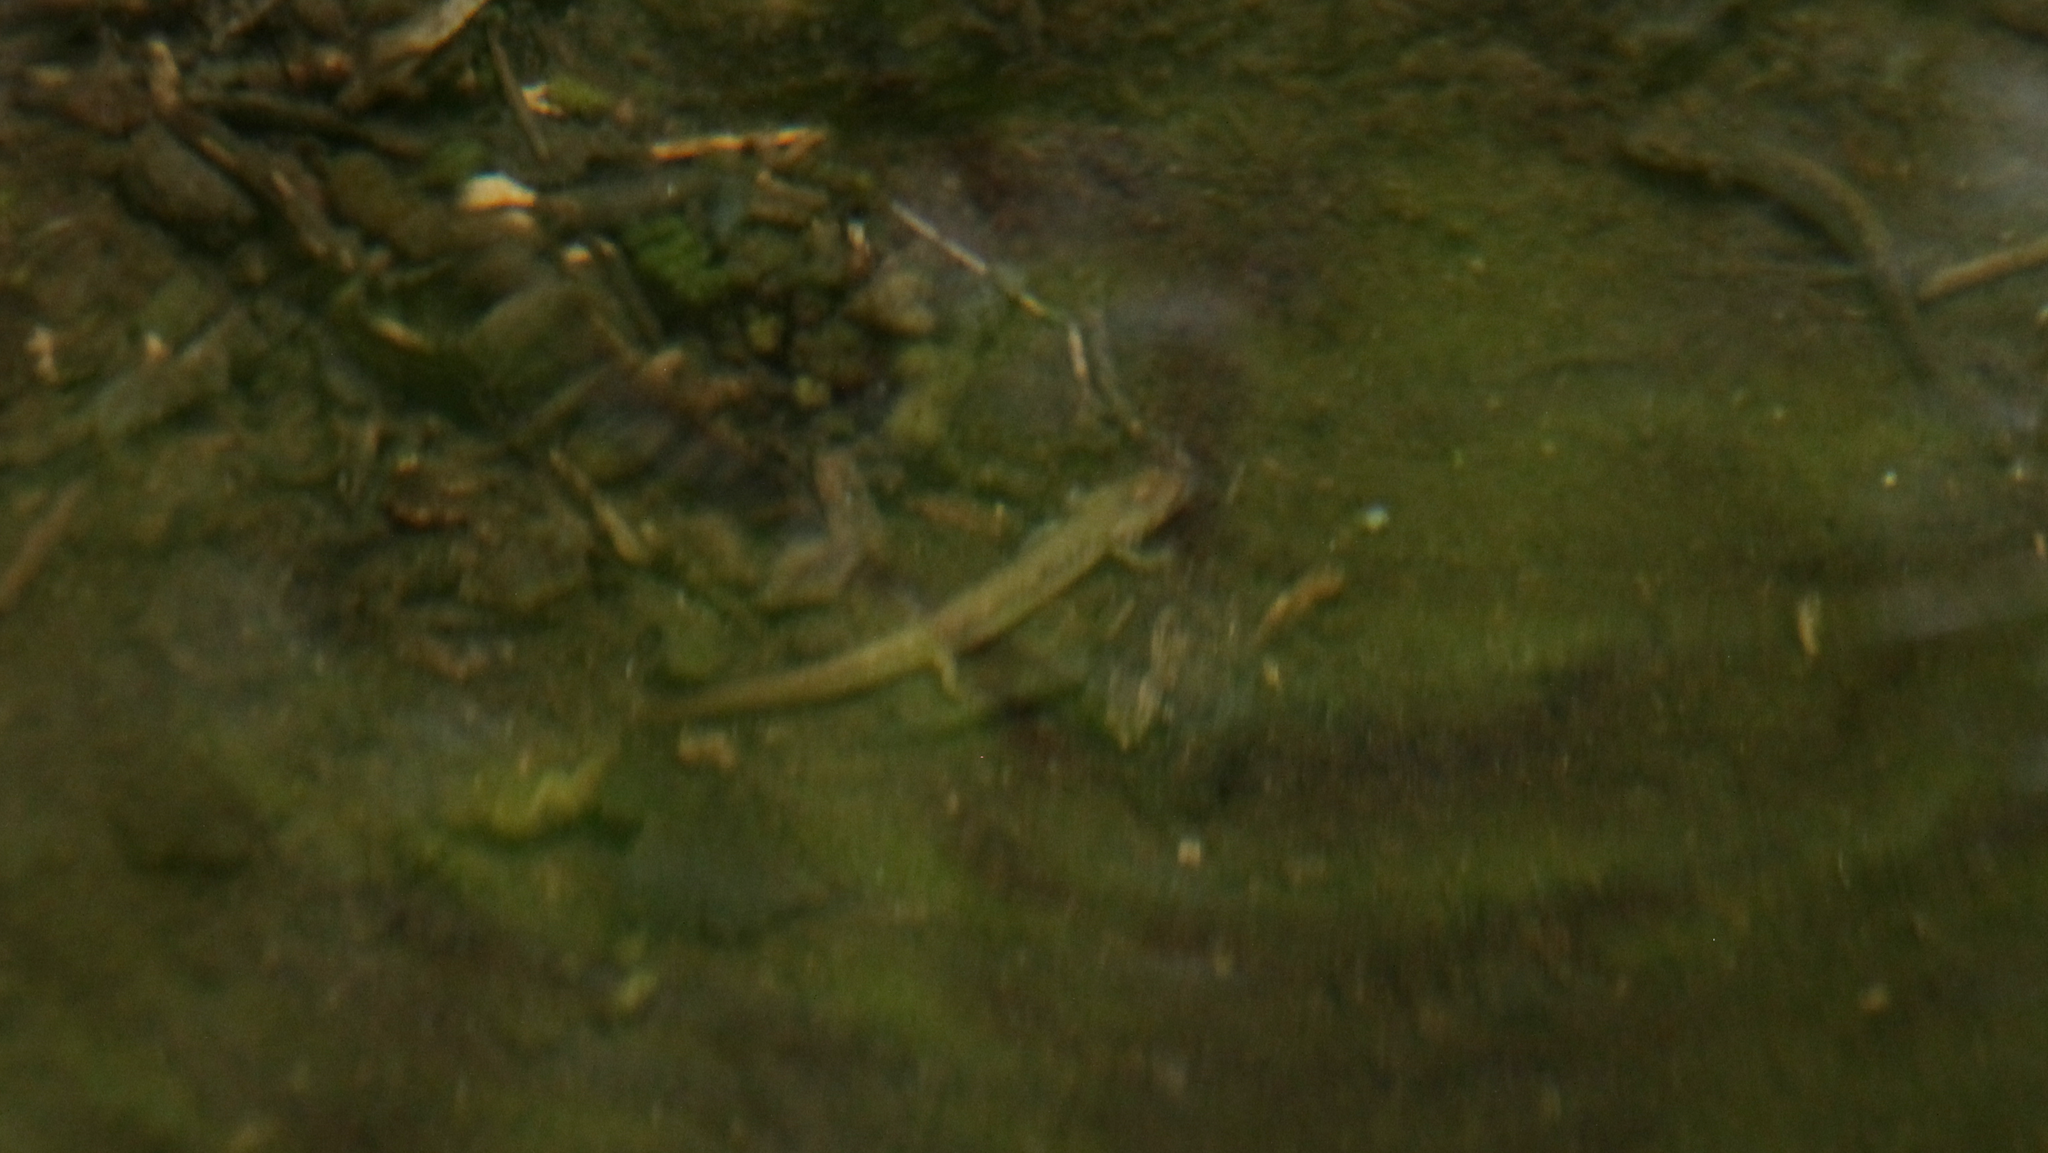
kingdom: Animalia
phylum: Chordata
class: Amphibia
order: Caudata
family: Plethodontidae
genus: Eurycea
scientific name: Eurycea bislineata
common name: Northern two-lined salamander
